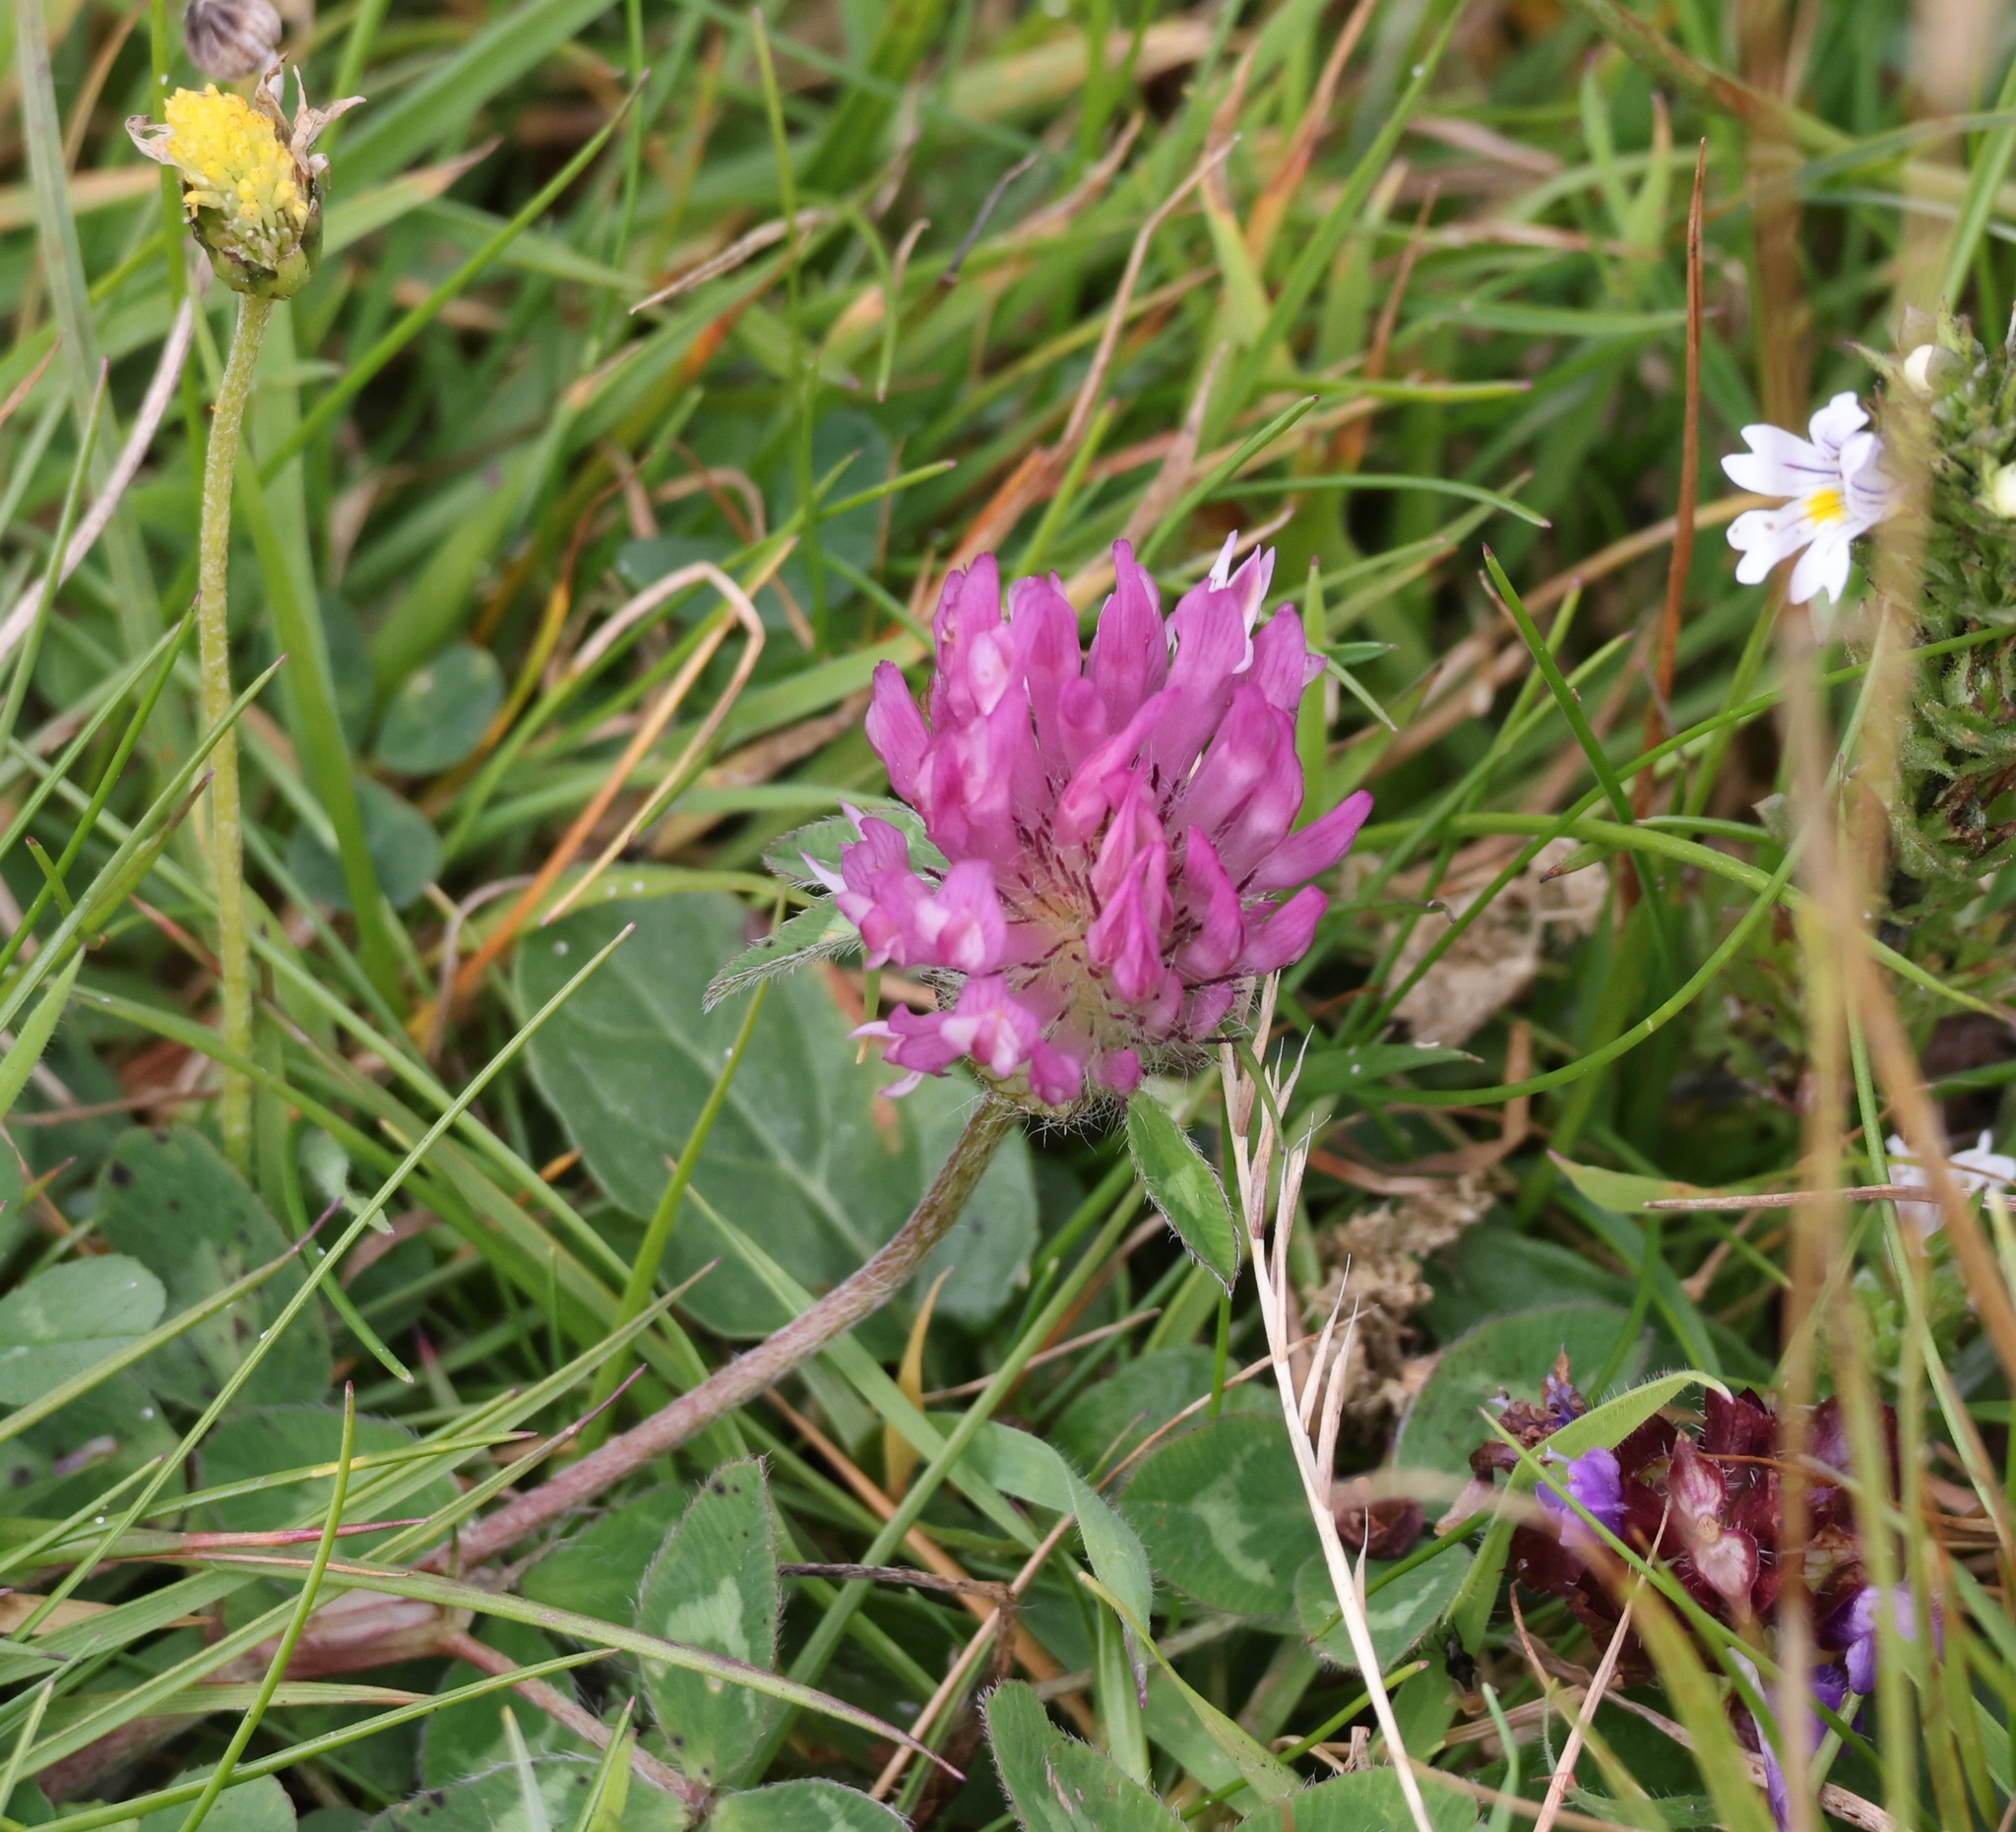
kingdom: Plantae
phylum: Tracheophyta
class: Magnoliopsida
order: Fabales
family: Fabaceae
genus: Trifolium
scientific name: Trifolium pratense
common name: Red clover
